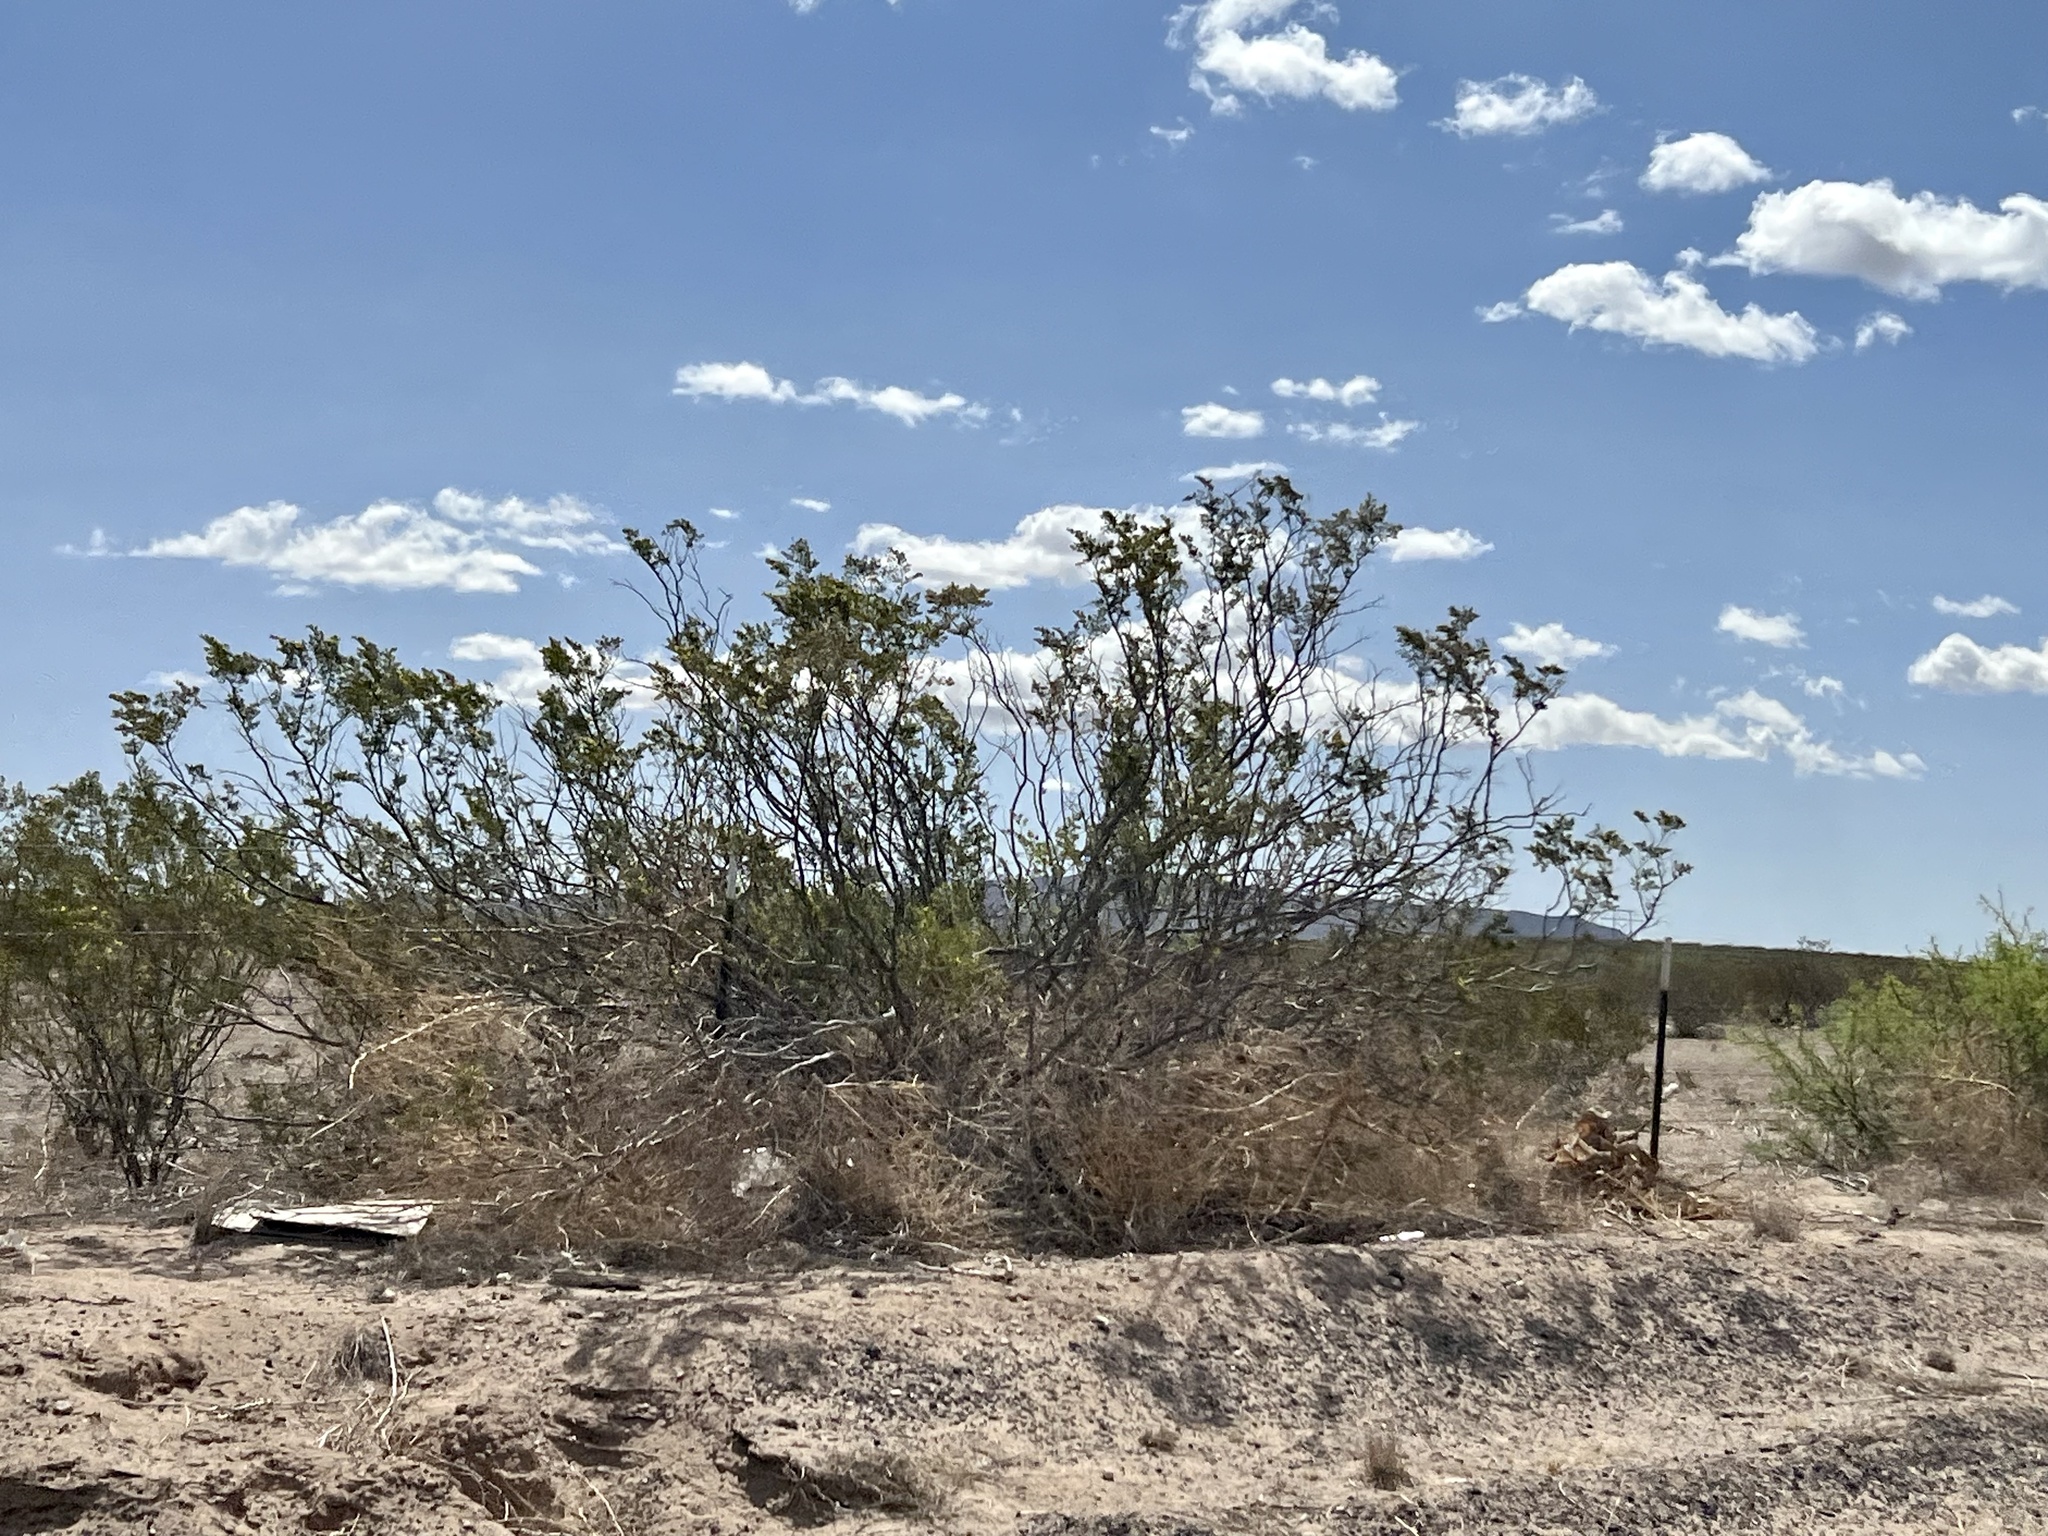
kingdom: Plantae
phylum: Tracheophyta
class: Magnoliopsida
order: Zygophyllales
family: Zygophyllaceae
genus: Larrea
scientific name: Larrea tridentata
